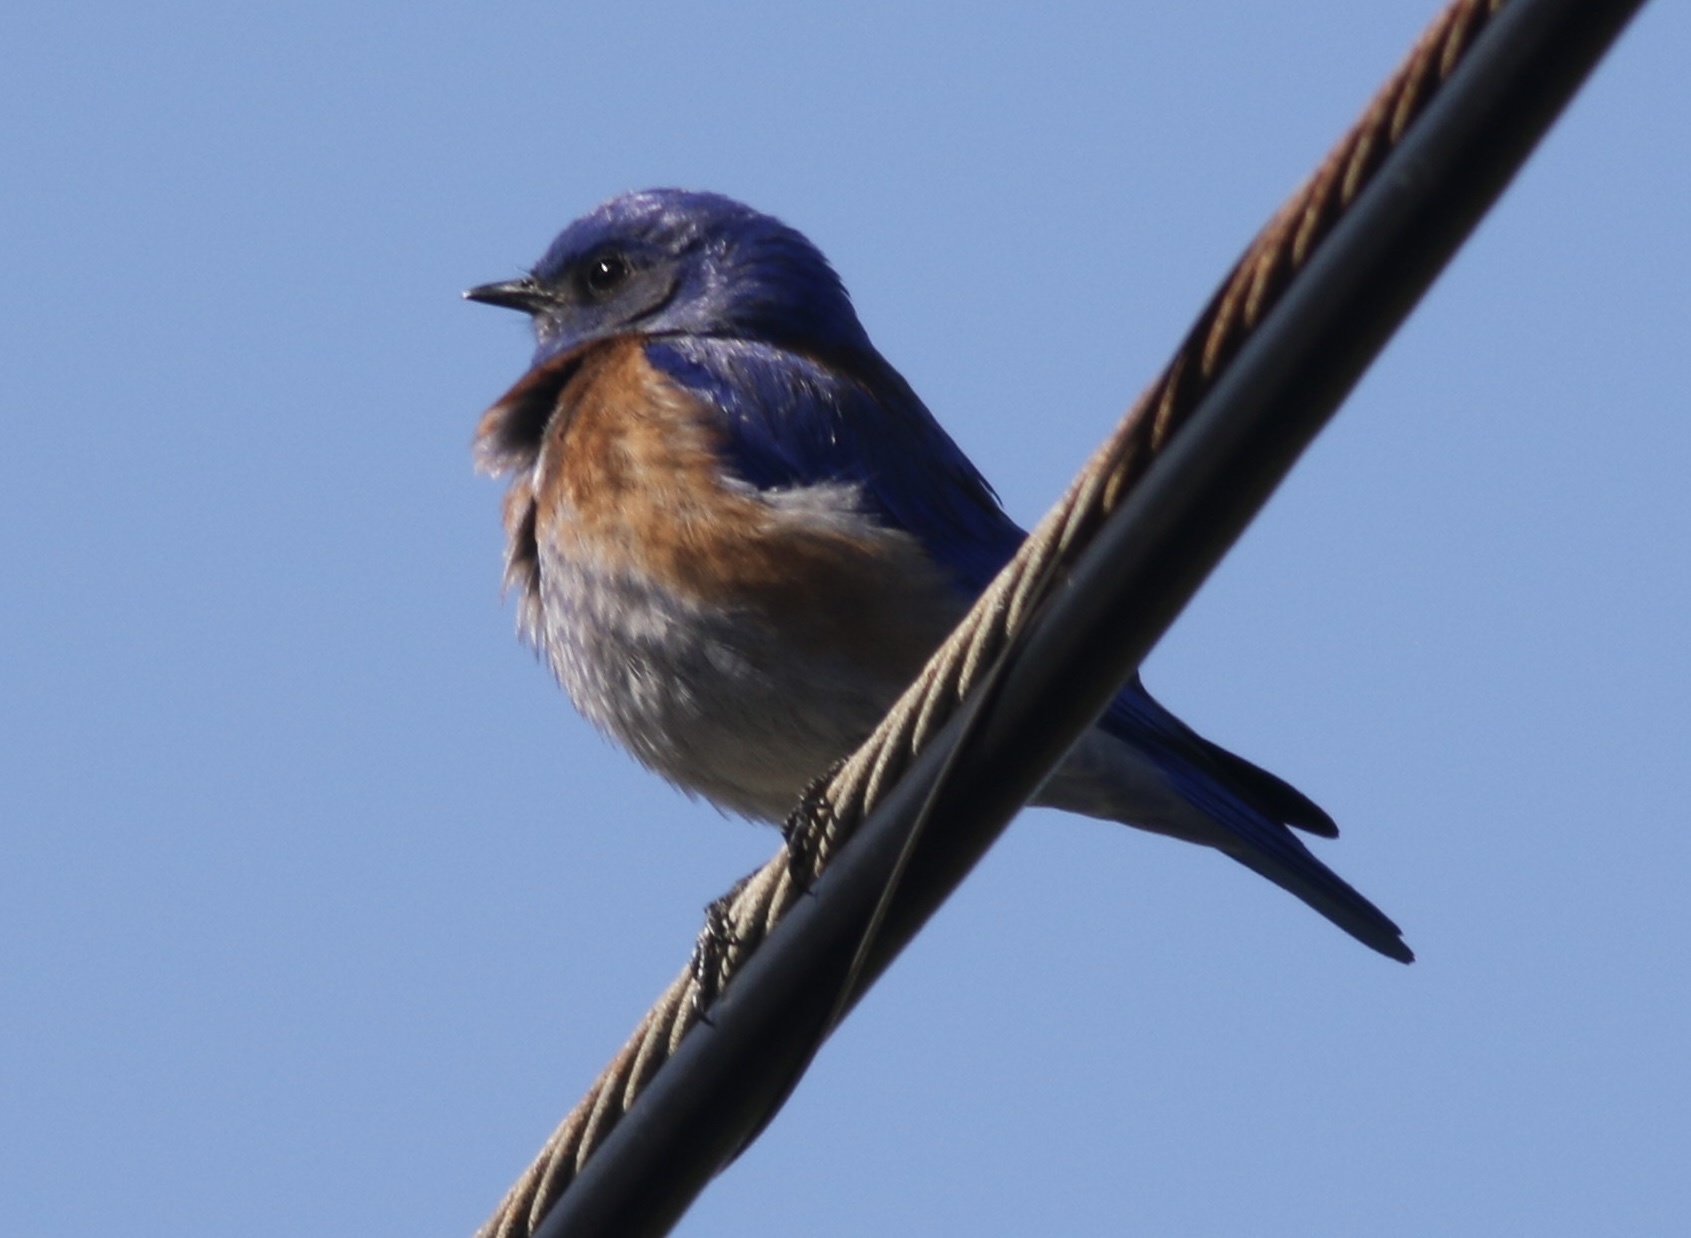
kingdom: Animalia
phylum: Chordata
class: Aves
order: Passeriformes
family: Turdidae
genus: Sialia
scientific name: Sialia mexicana
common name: Western bluebird
